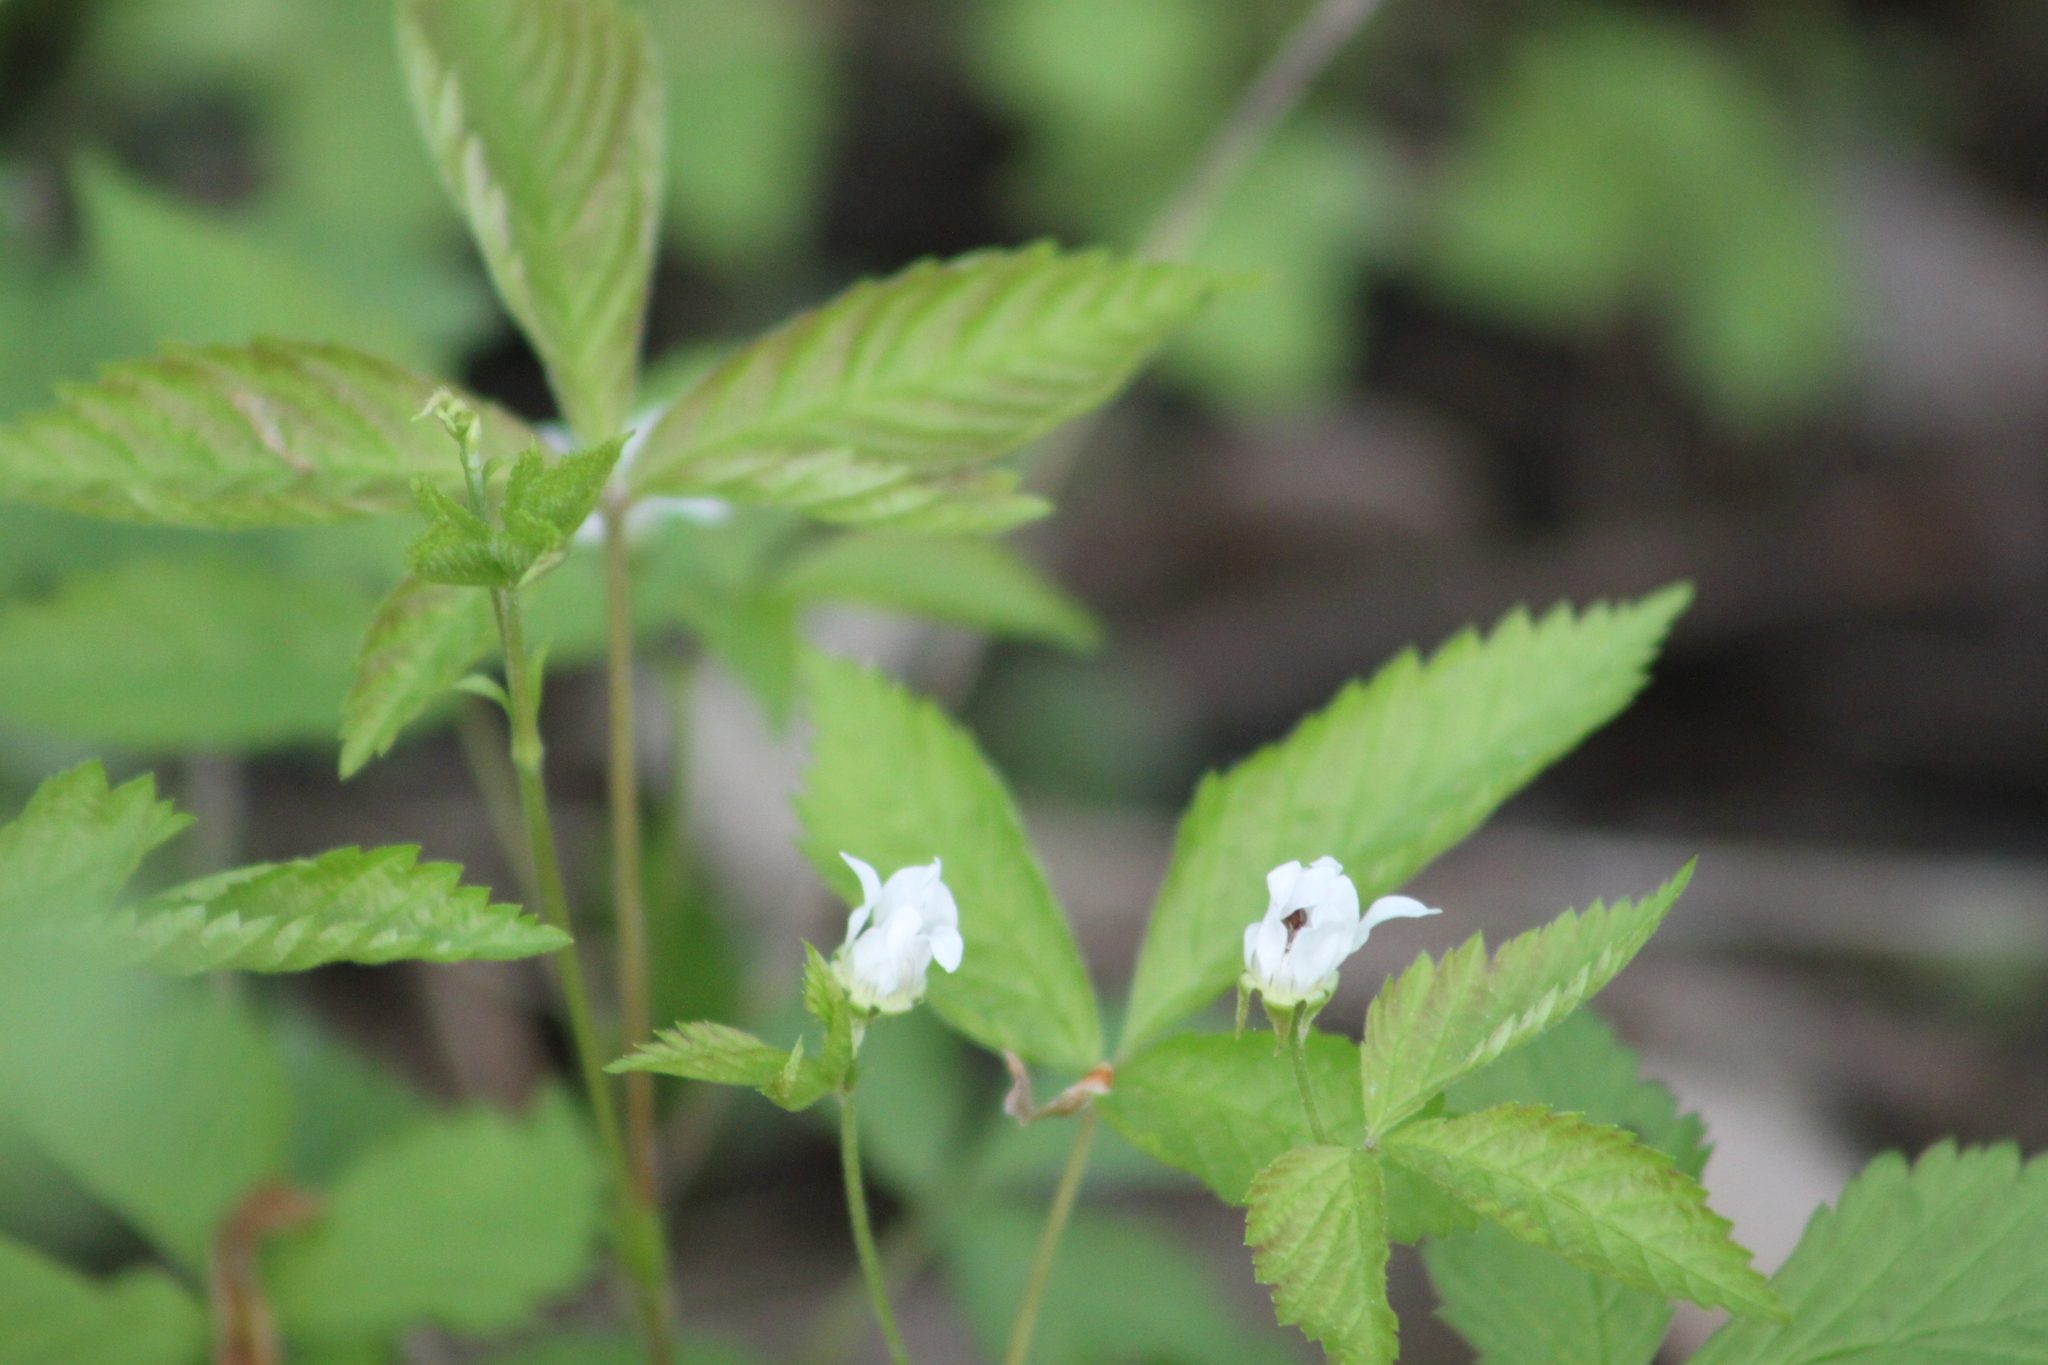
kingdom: Plantae
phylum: Tracheophyta
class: Magnoliopsida
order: Rosales
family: Rosaceae
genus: Rubus
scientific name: Rubus pubescens
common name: Dwarf raspberry
